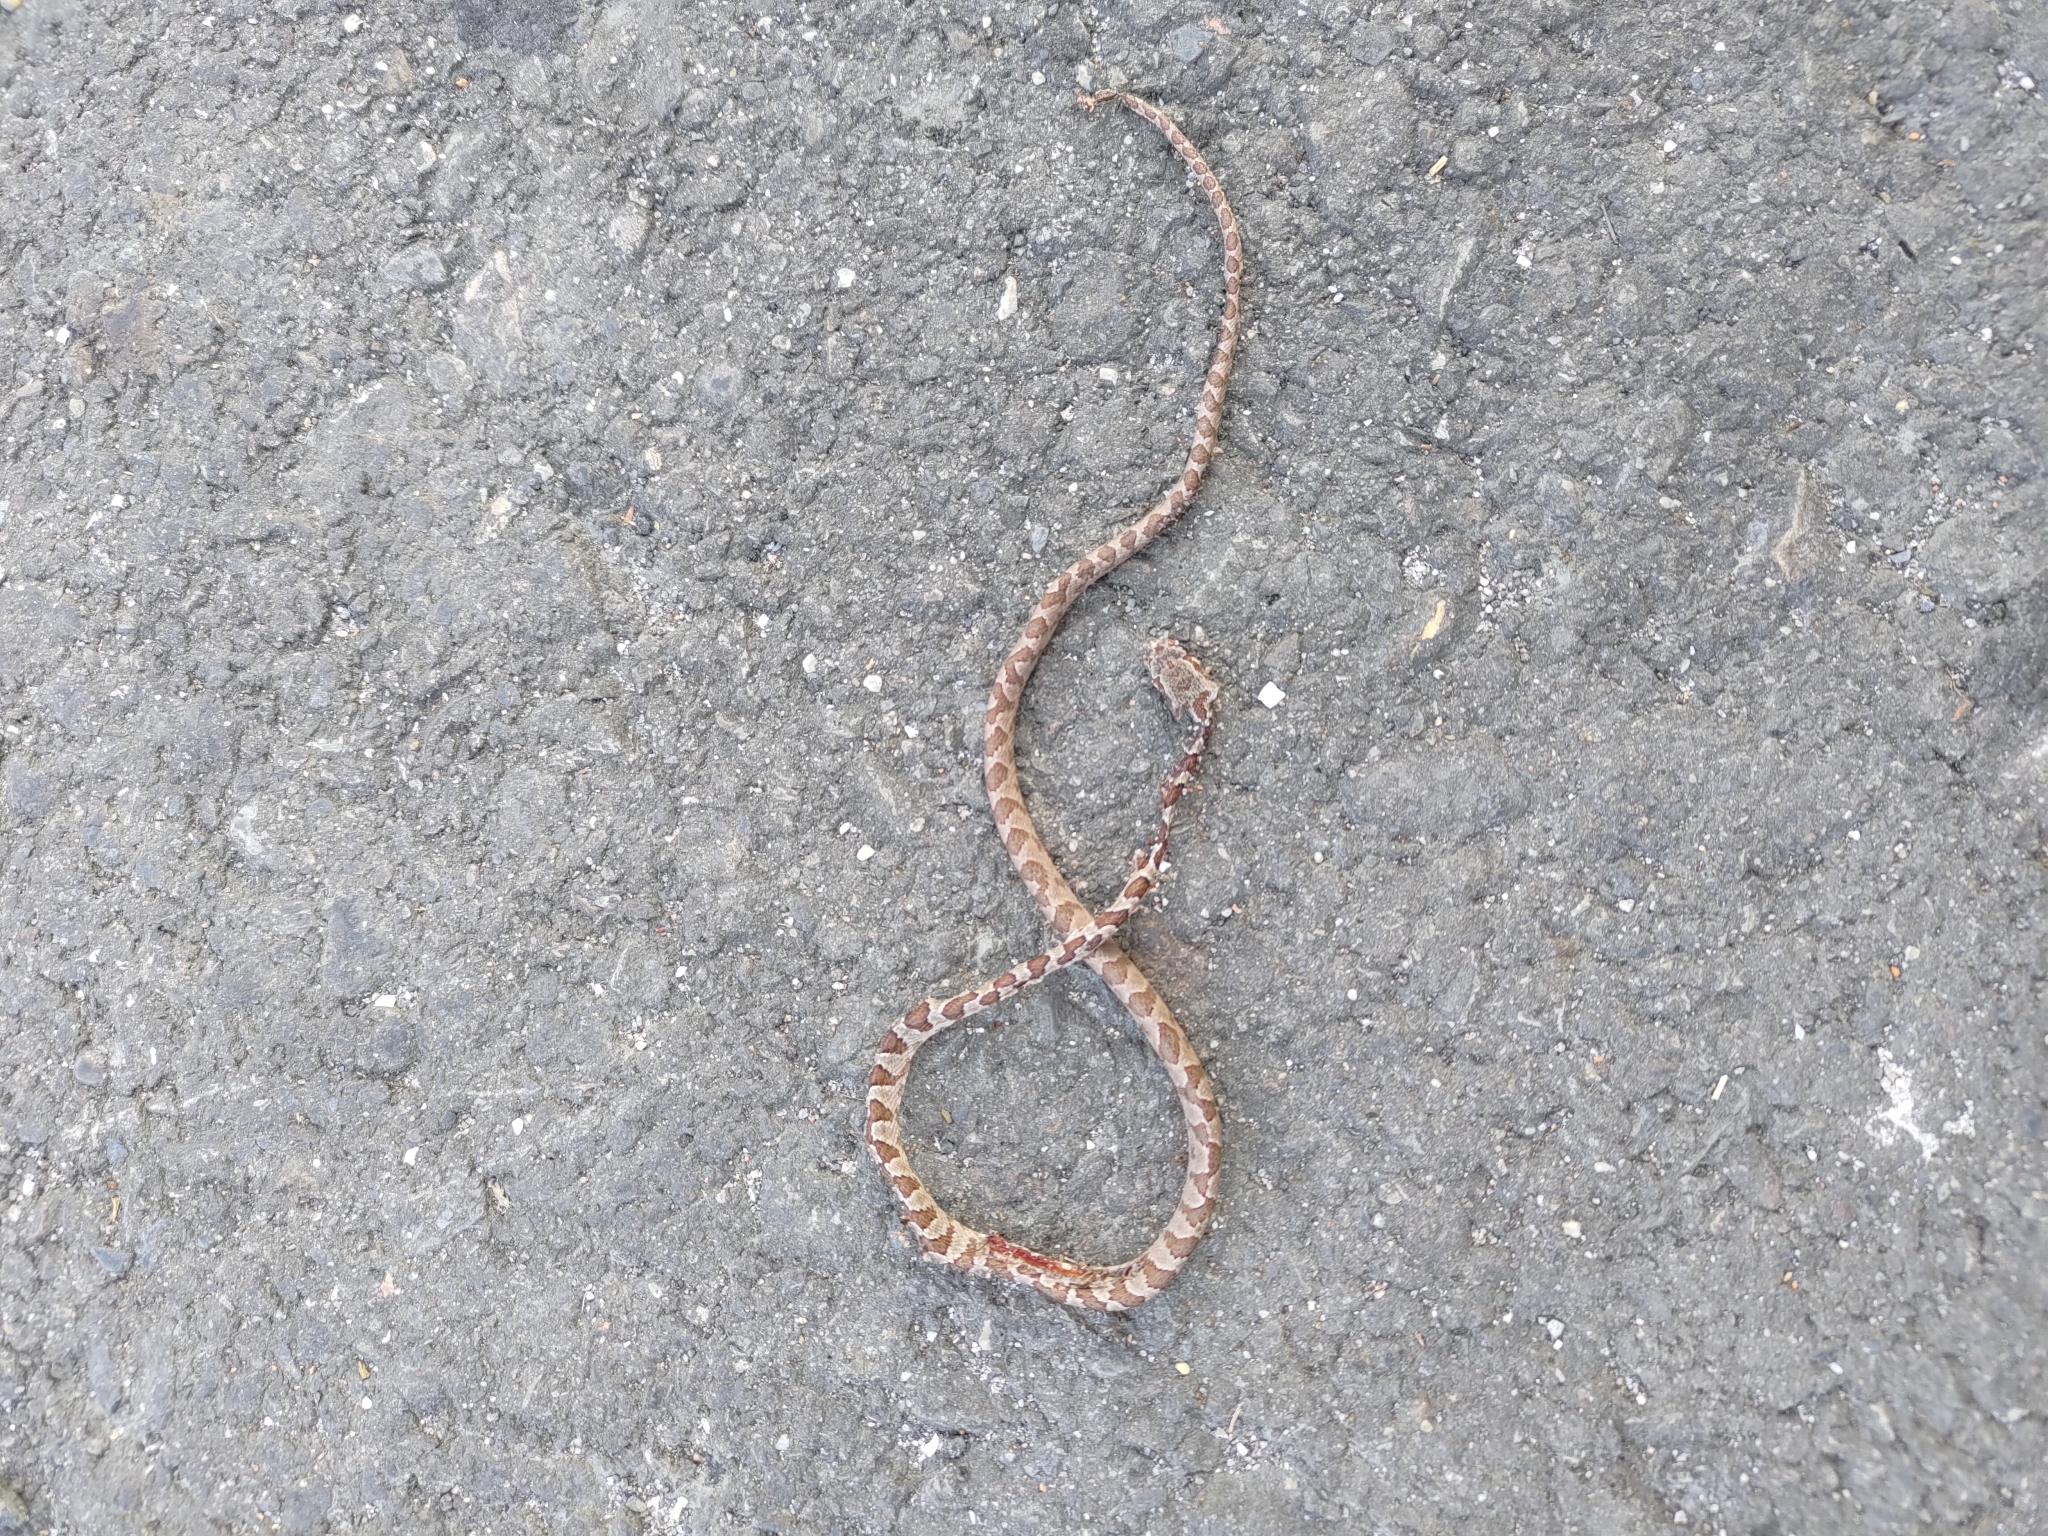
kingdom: Animalia
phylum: Chordata
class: Squamata
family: Colubridae
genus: Boiga
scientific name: Boiga kraepelini
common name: Kelung cat snake
